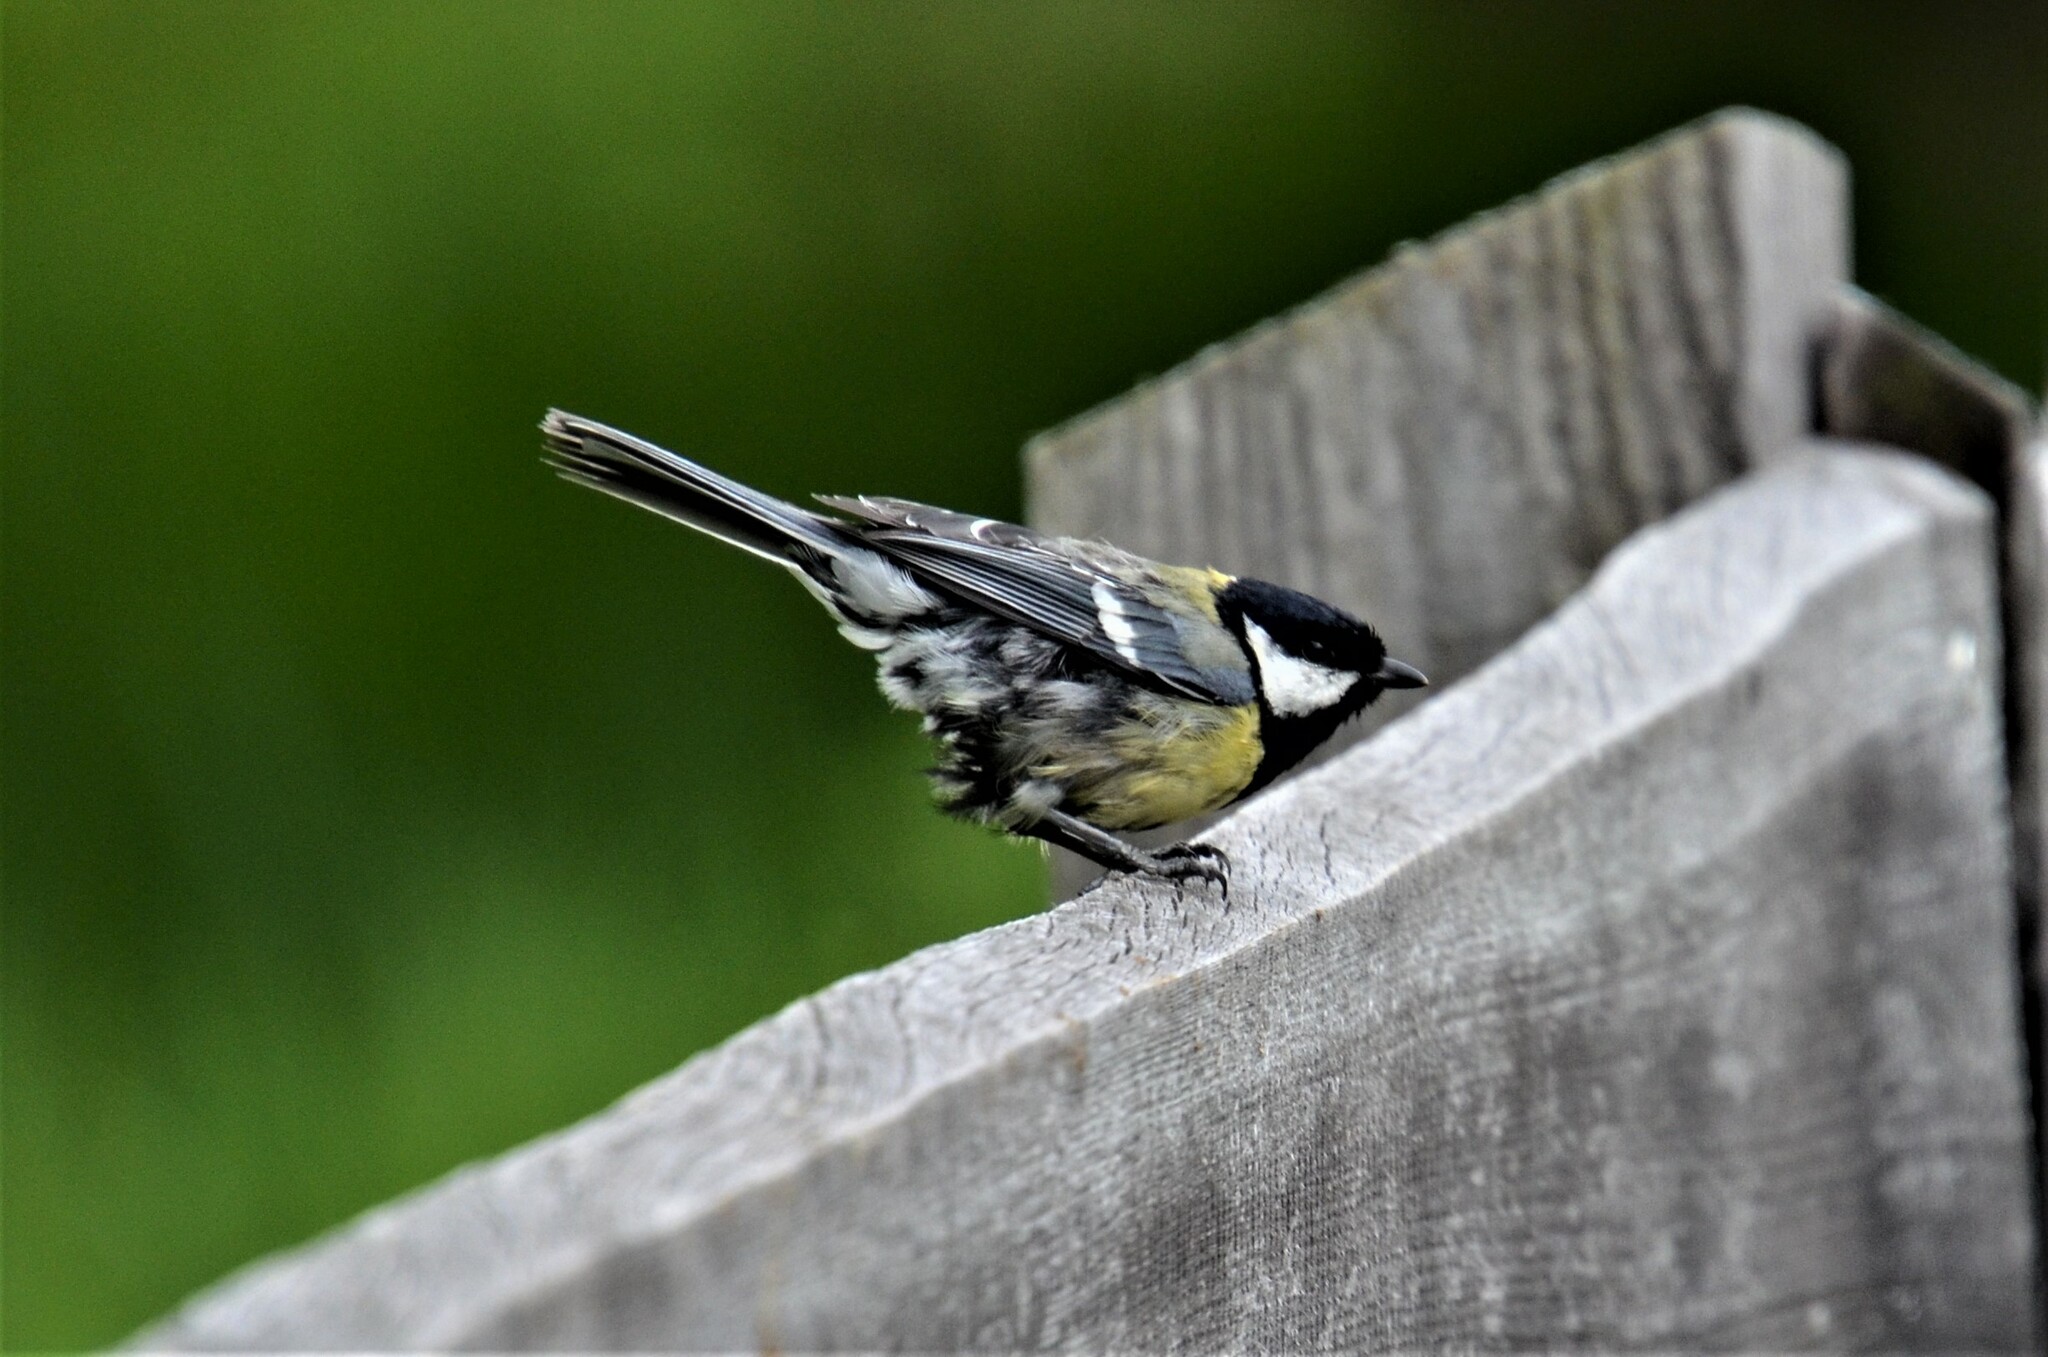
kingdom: Animalia
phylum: Chordata
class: Aves
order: Passeriformes
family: Paridae
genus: Parus
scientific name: Parus major
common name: Great tit
